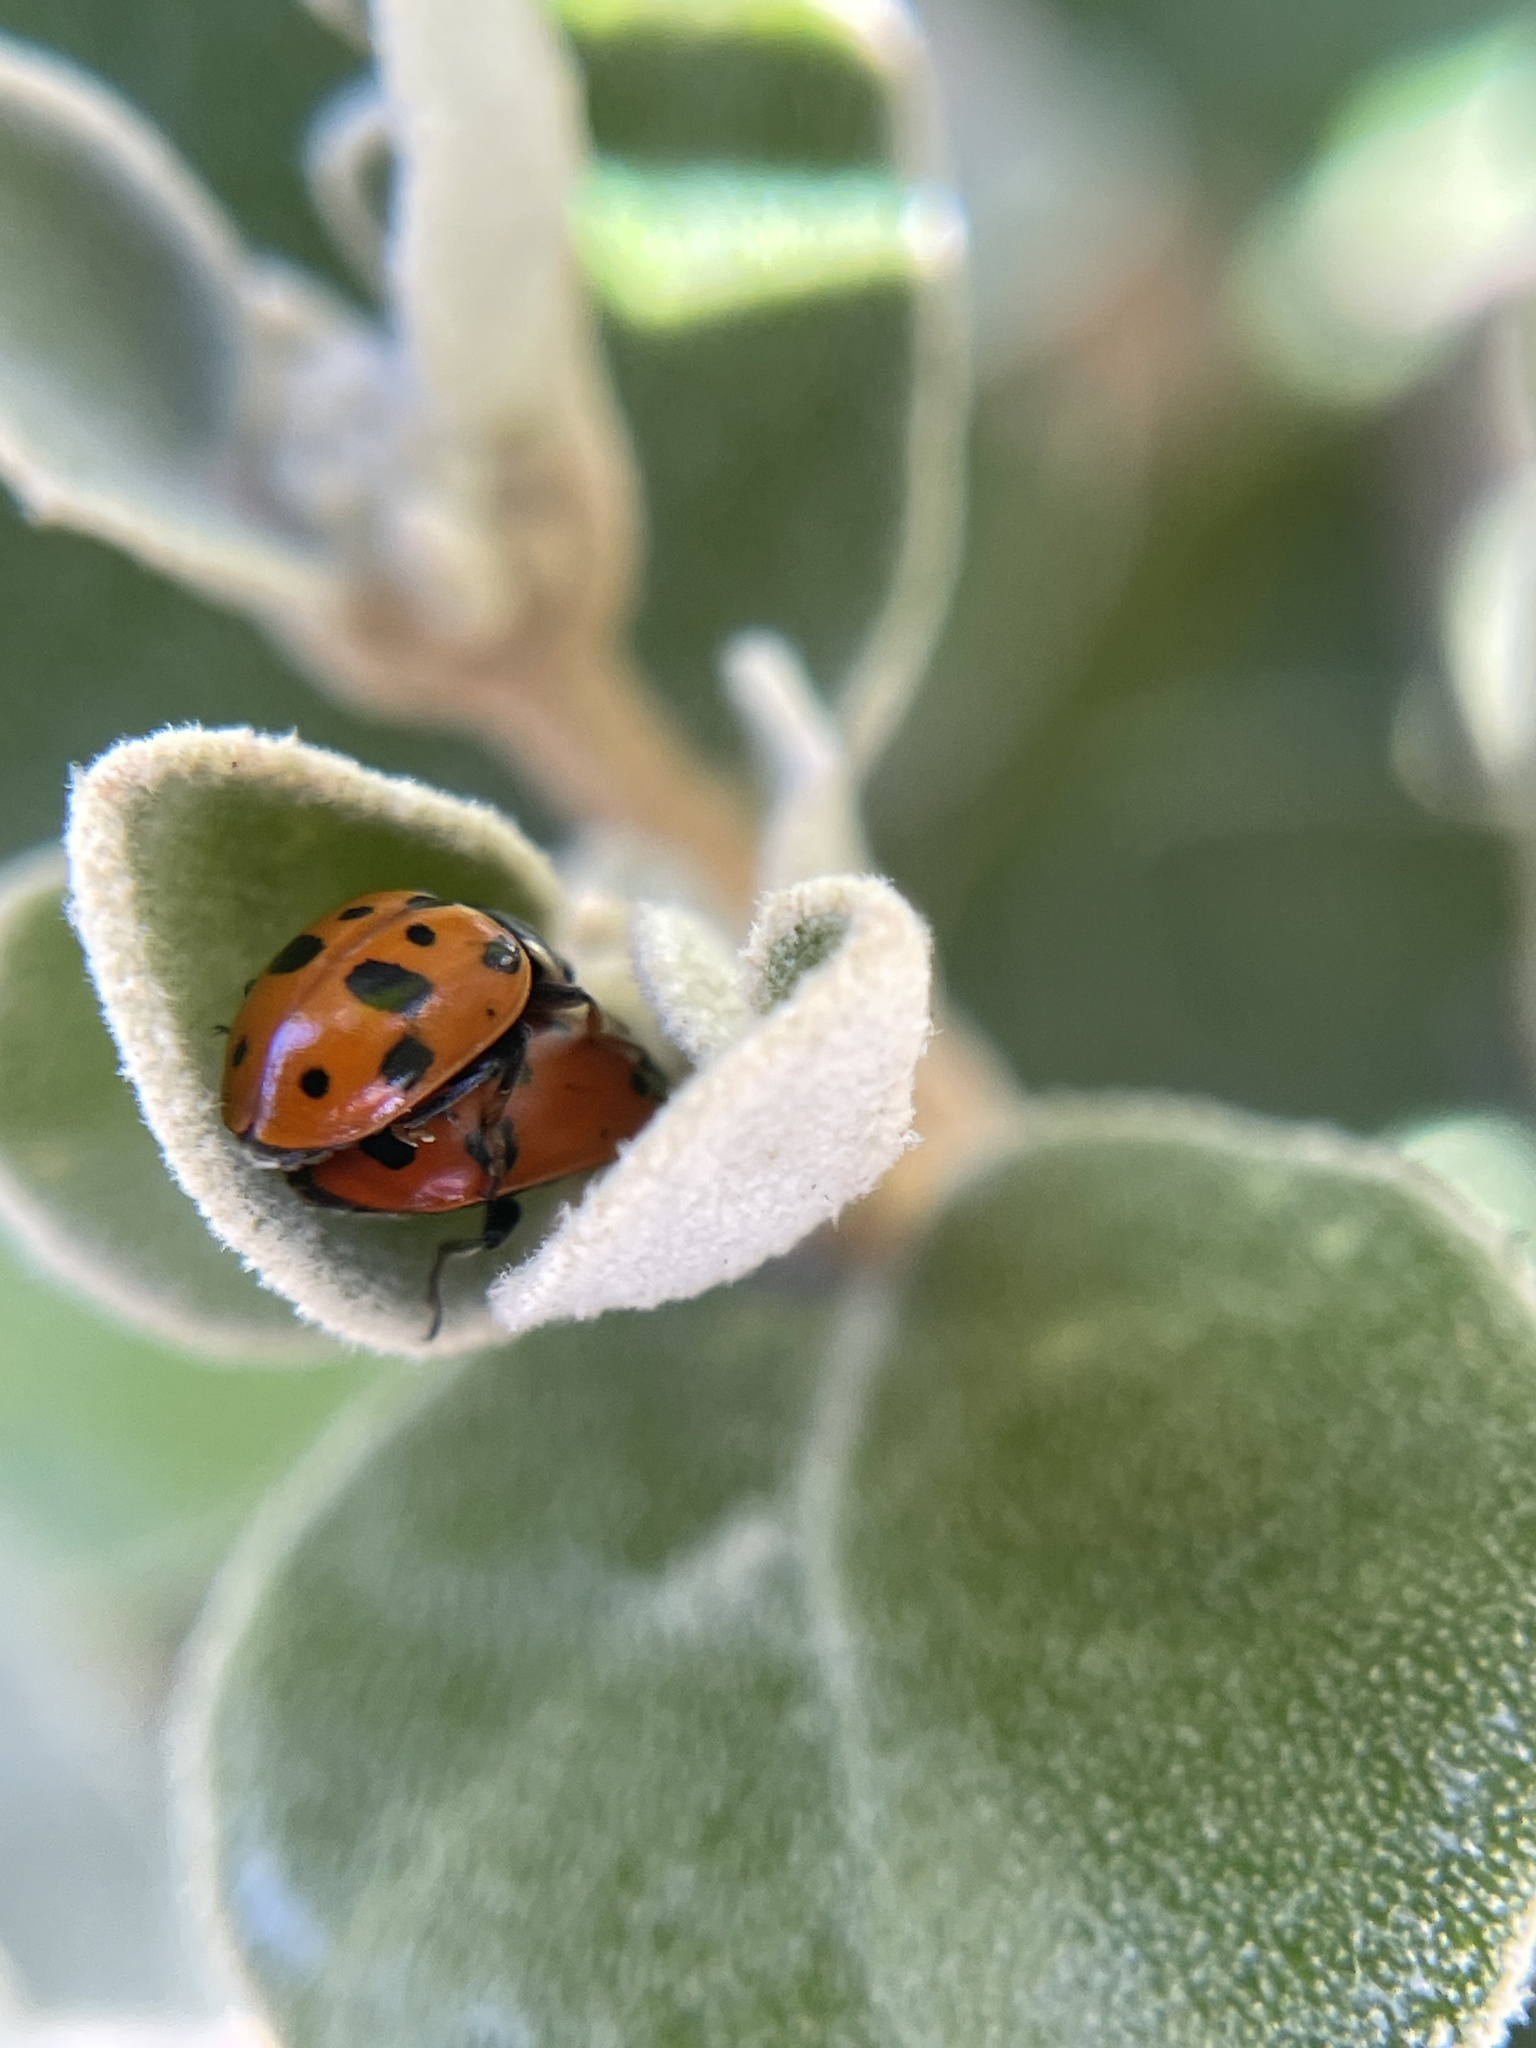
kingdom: Animalia
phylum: Arthropoda
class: Insecta
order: Coleoptera
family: Coccinellidae
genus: Hippodamia
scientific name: Hippodamia variegata
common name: Ladybird beetle
